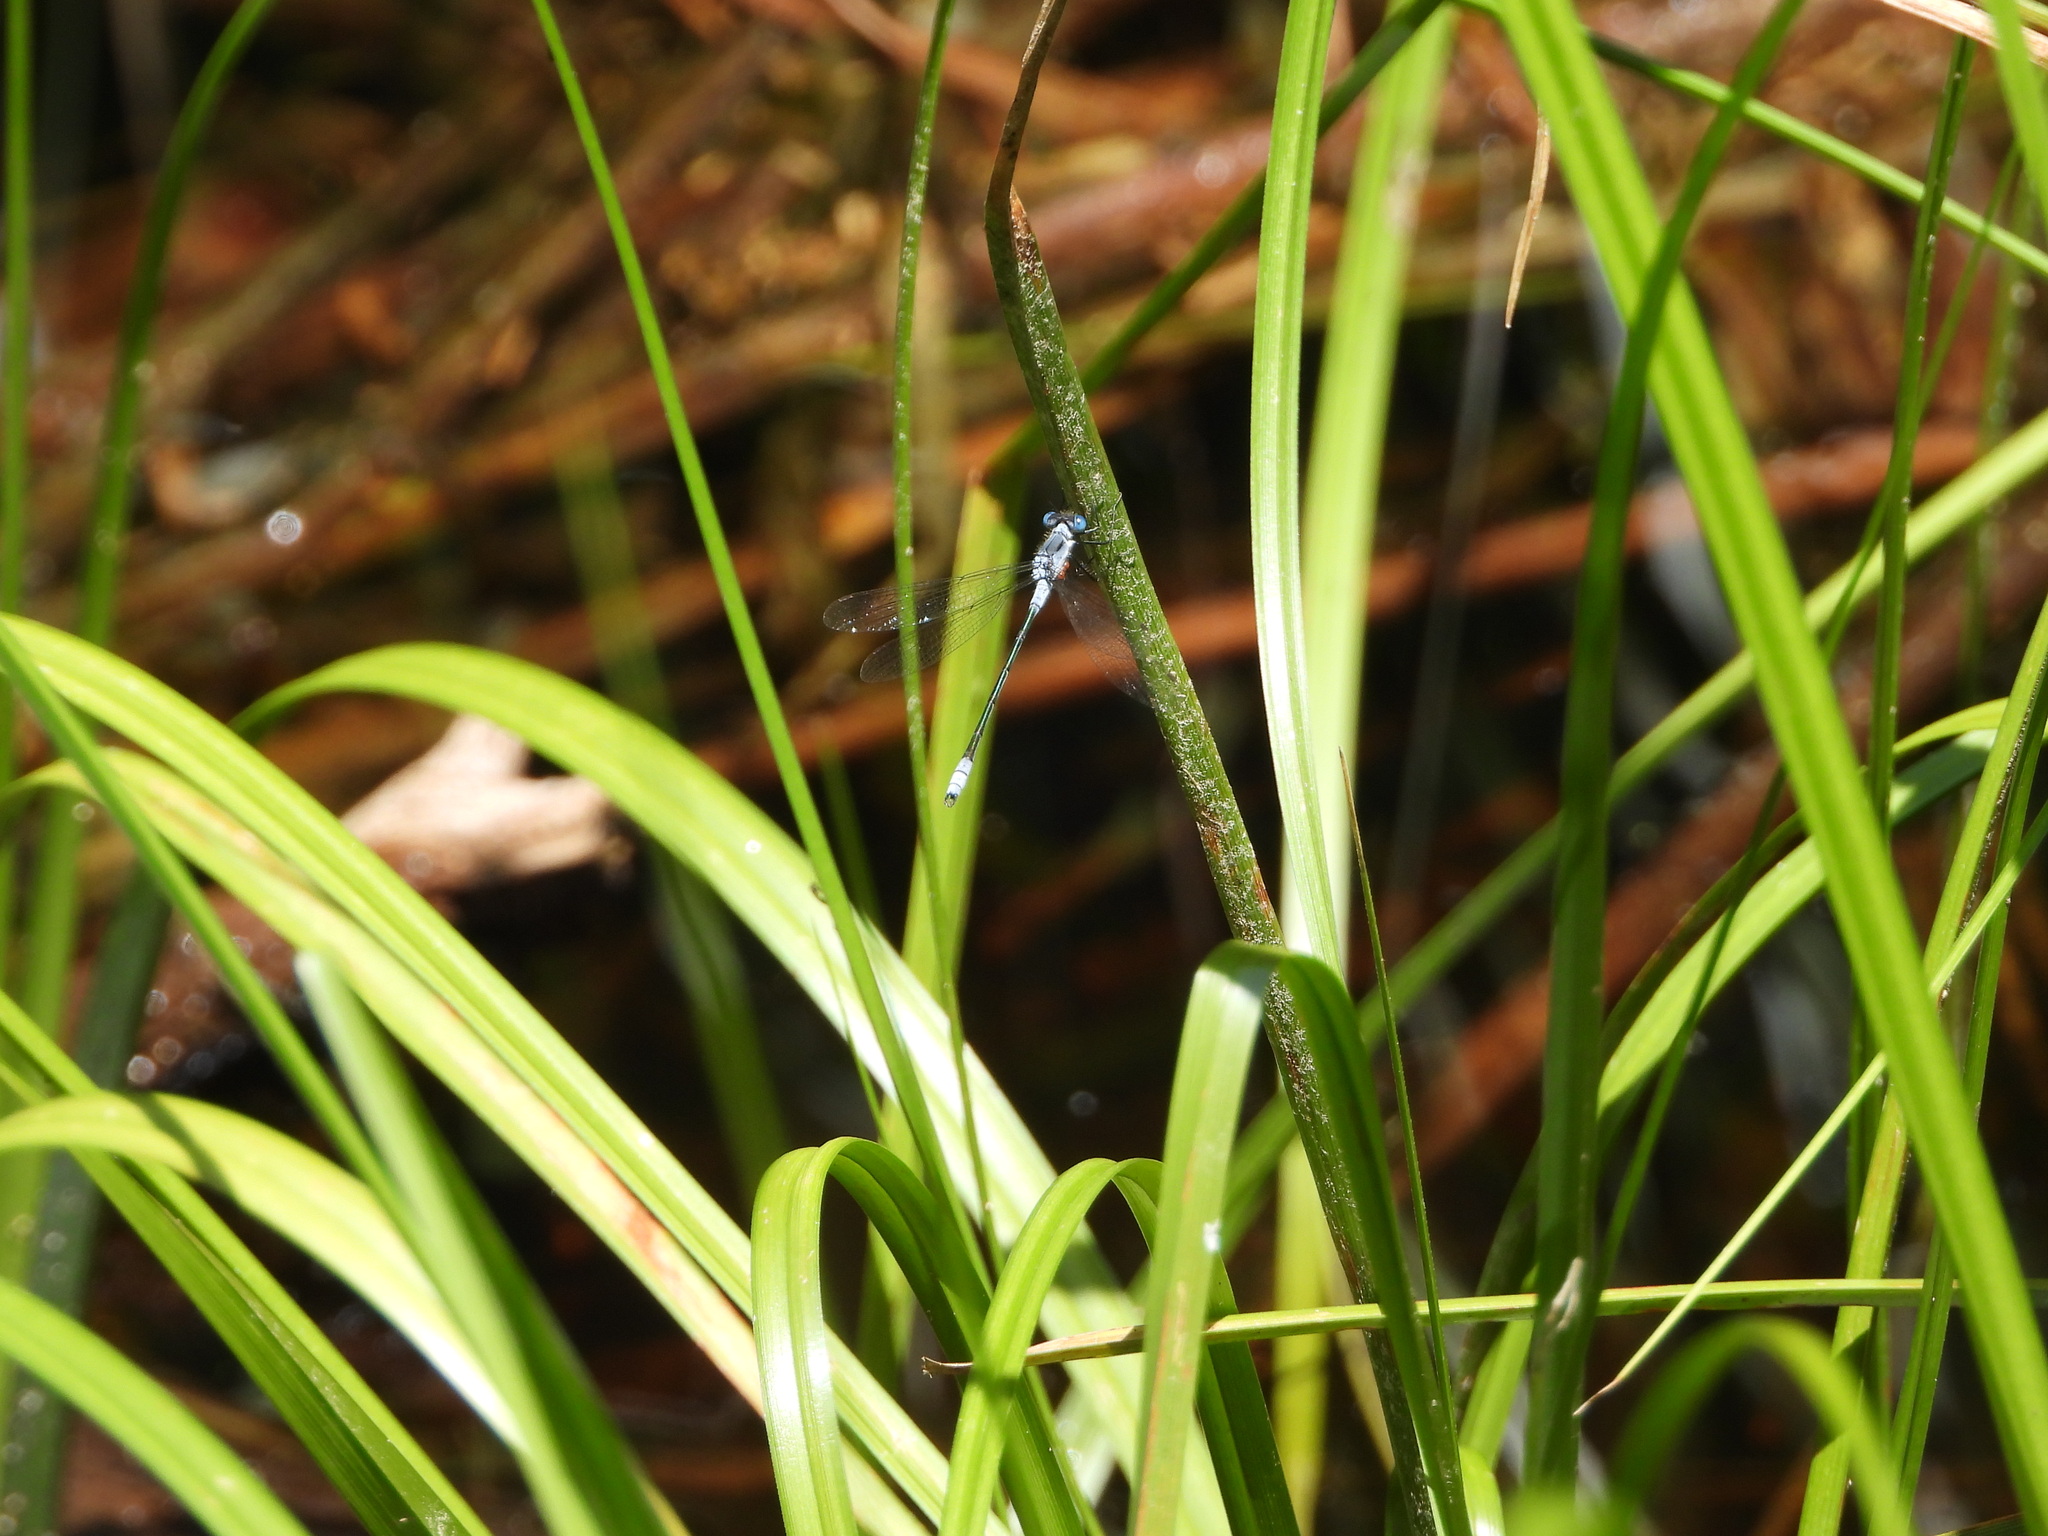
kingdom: Animalia
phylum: Arthropoda
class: Insecta
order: Odonata
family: Lestidae
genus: Lestes
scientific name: Lestes disjunctus
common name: Northern spreadwing
